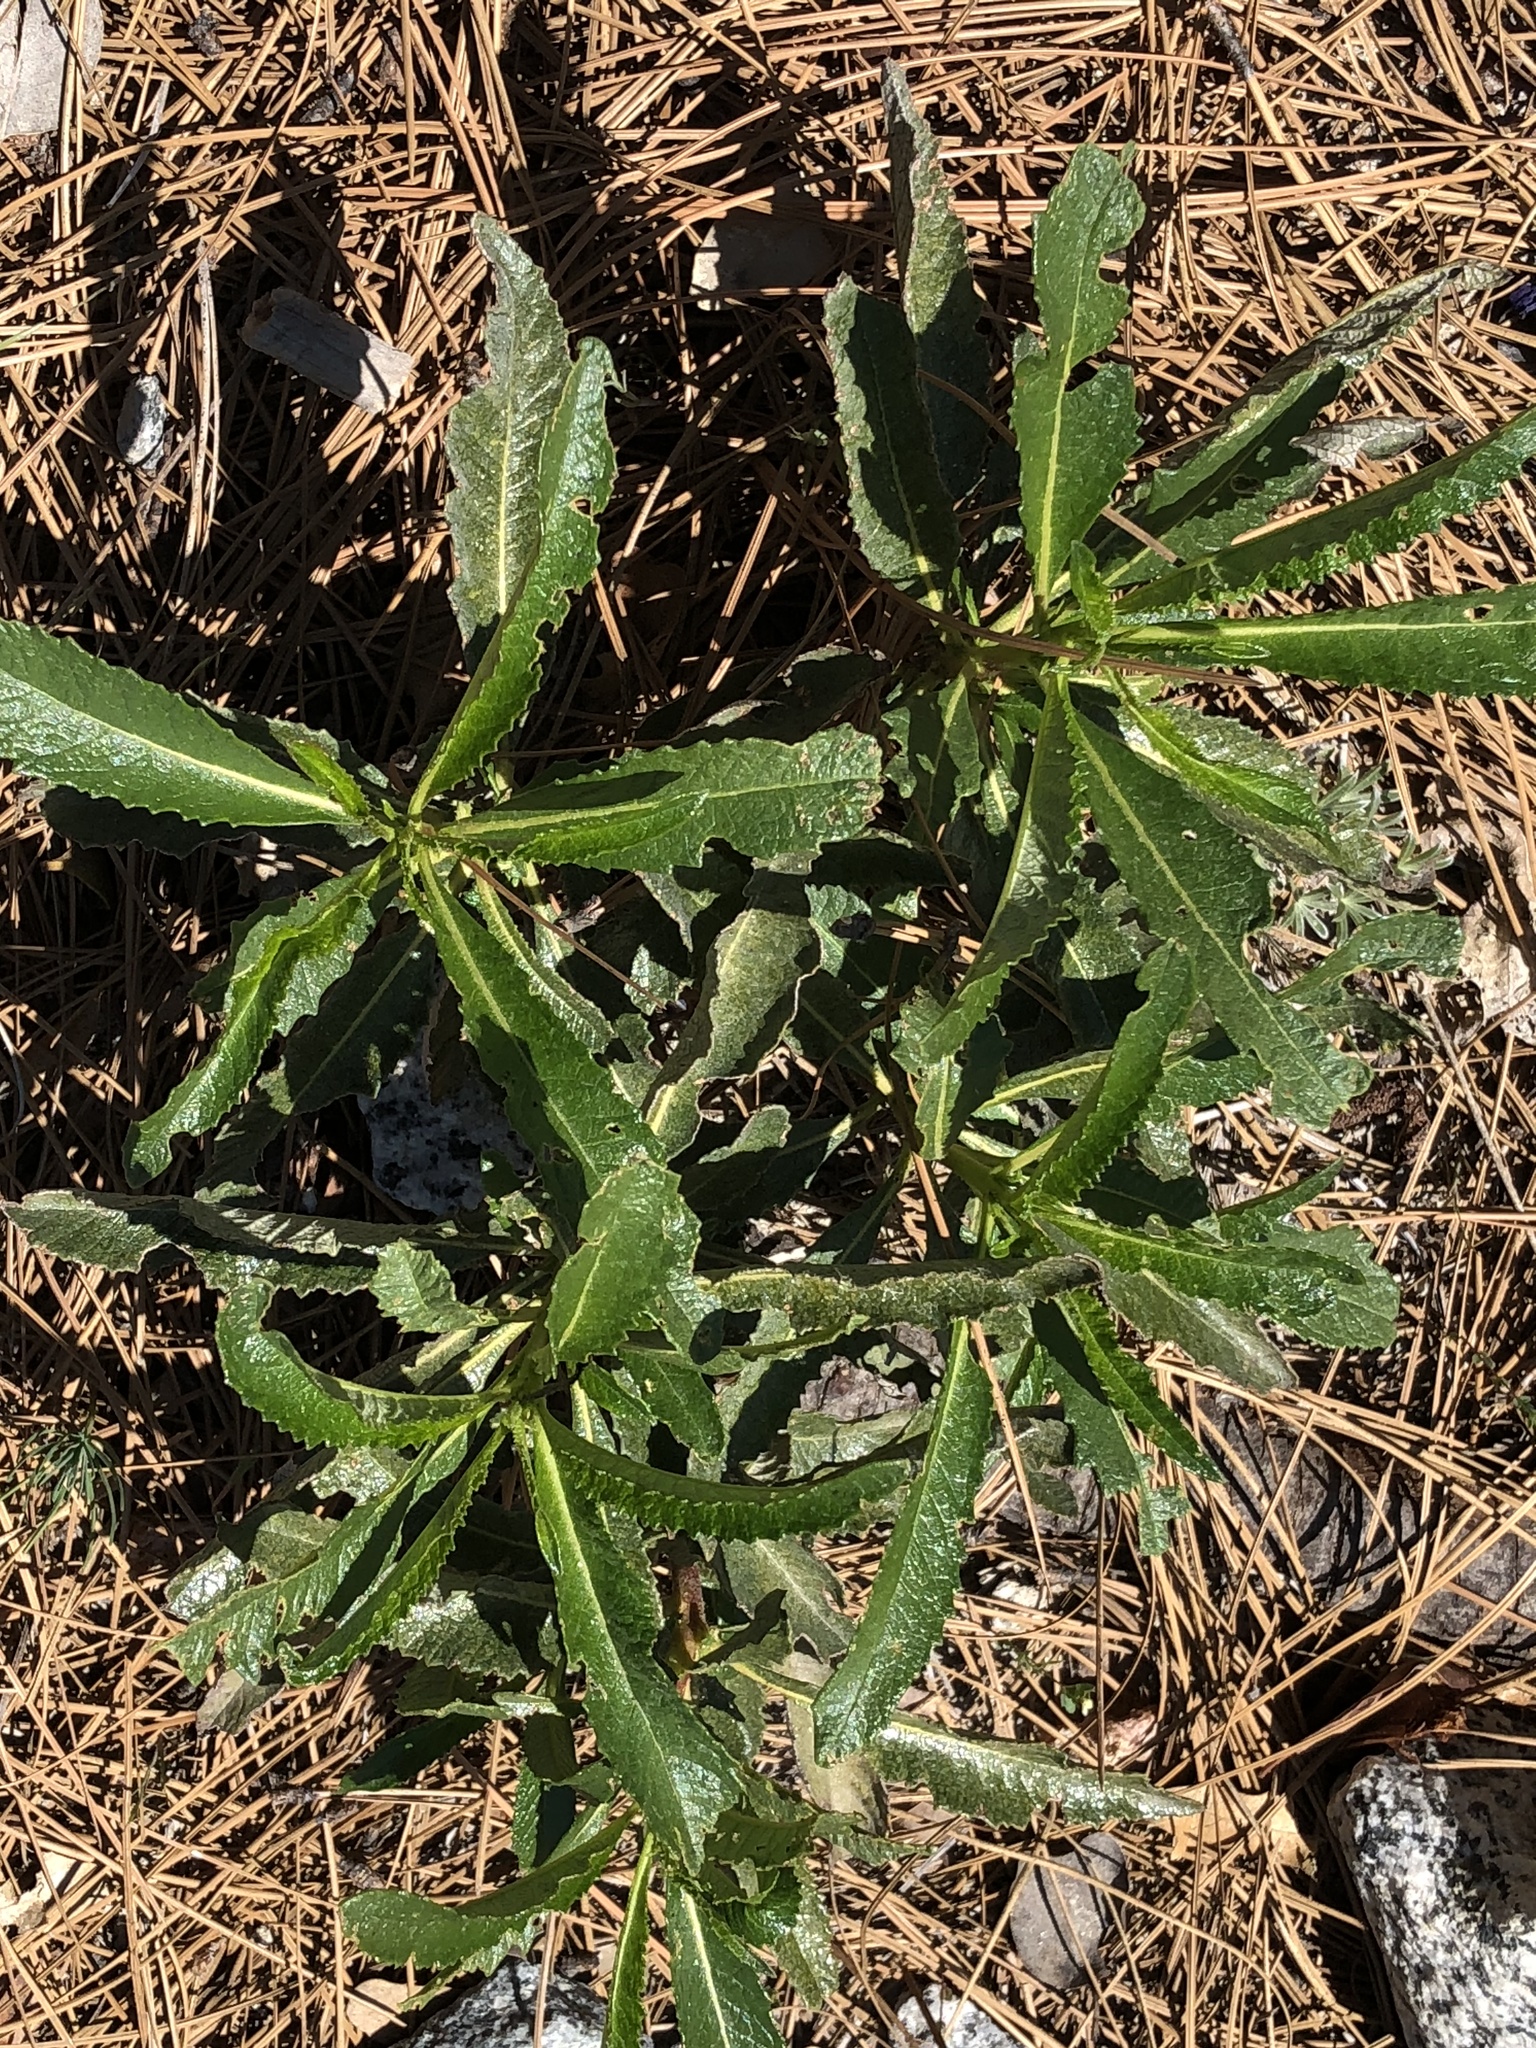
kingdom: Plantae
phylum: Tracheophyta
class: Magnoliopsida
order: Boraginales
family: Namaceae
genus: Eriodictyon
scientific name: Eriodictyon californicum
